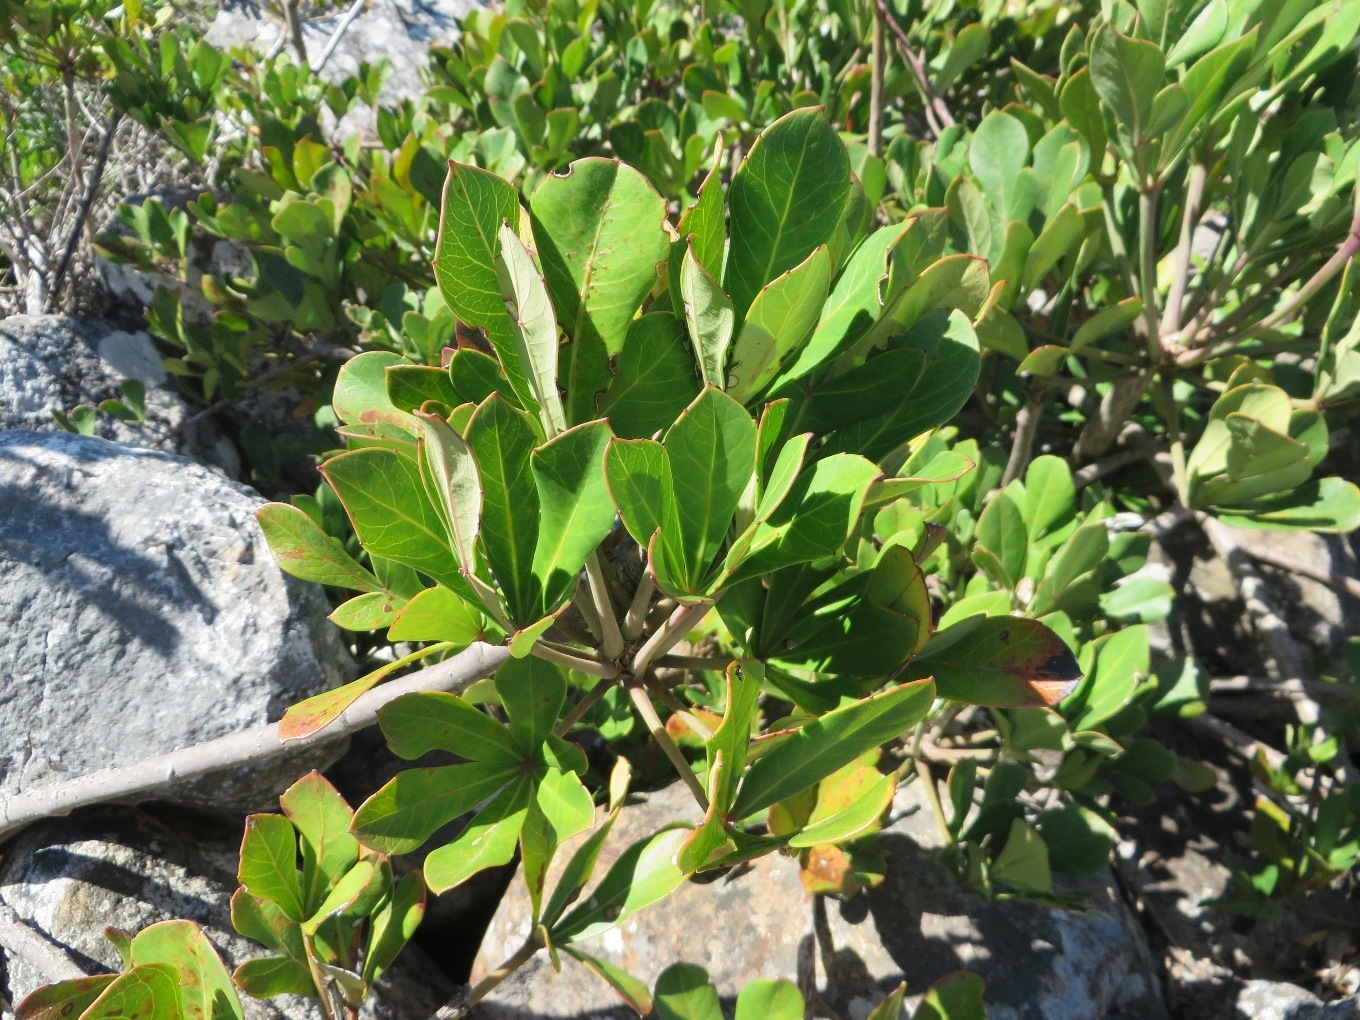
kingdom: Plantae
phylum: Tracheophyta
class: Magnoliopsida
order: Apiales
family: Araliaceae
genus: Cussonia
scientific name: Cussonia thyrsiflora
